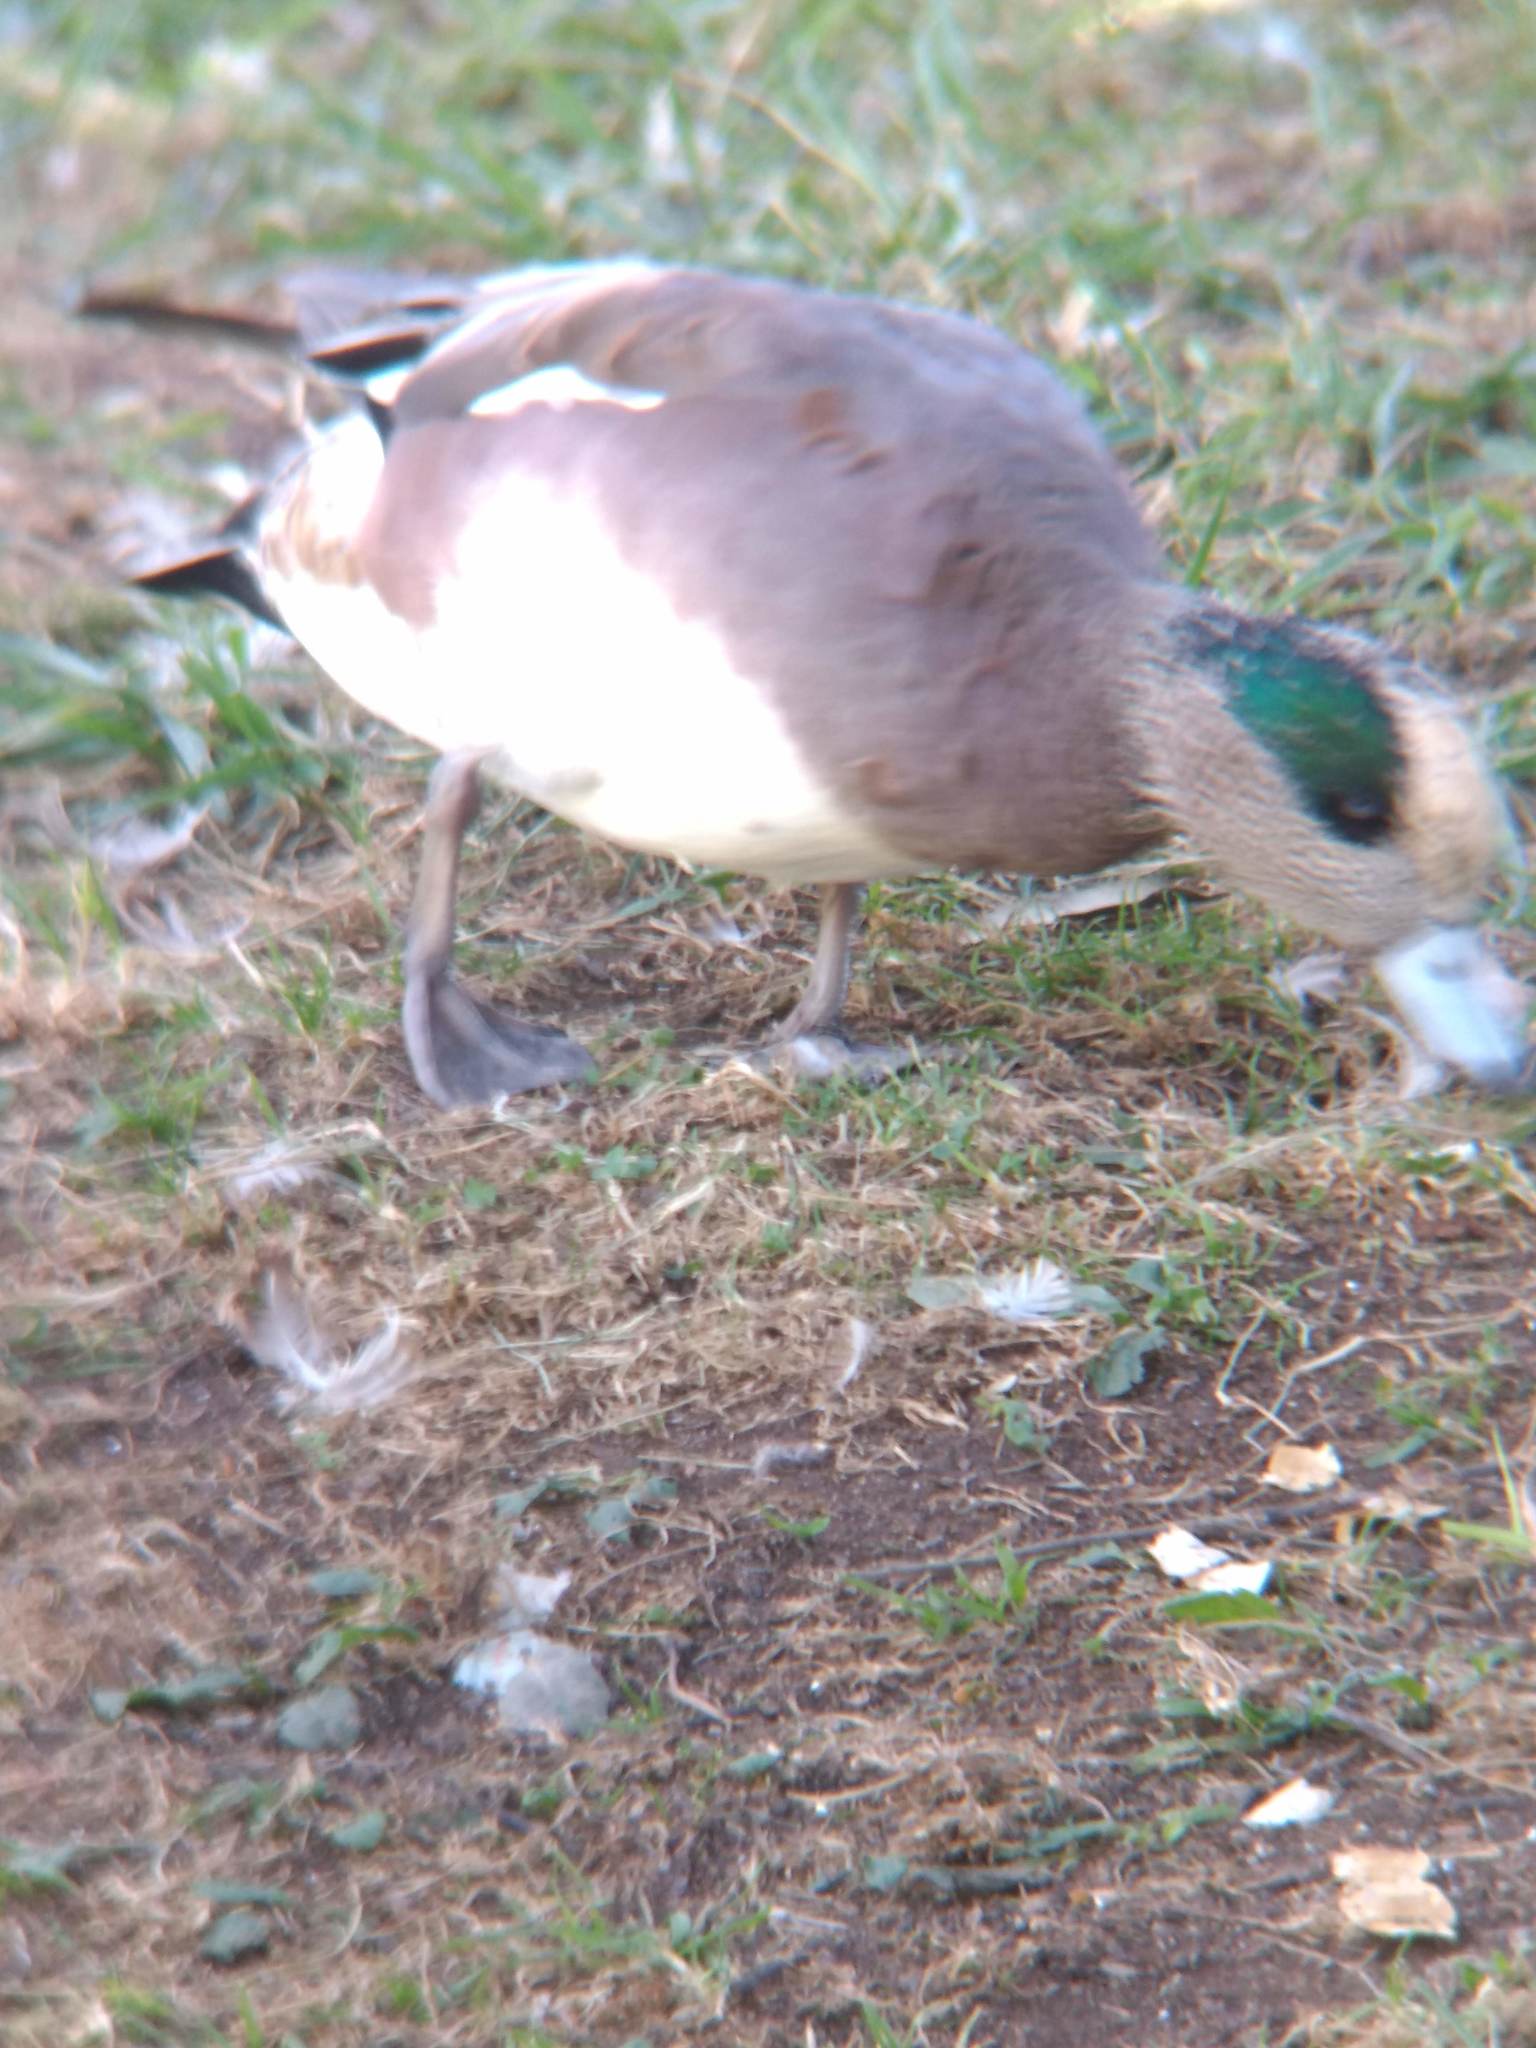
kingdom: Animalia
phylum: Chordata
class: Aves
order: Anseriformes
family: Anatidae
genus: Mareca
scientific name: Mareca americana
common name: American wigeon
